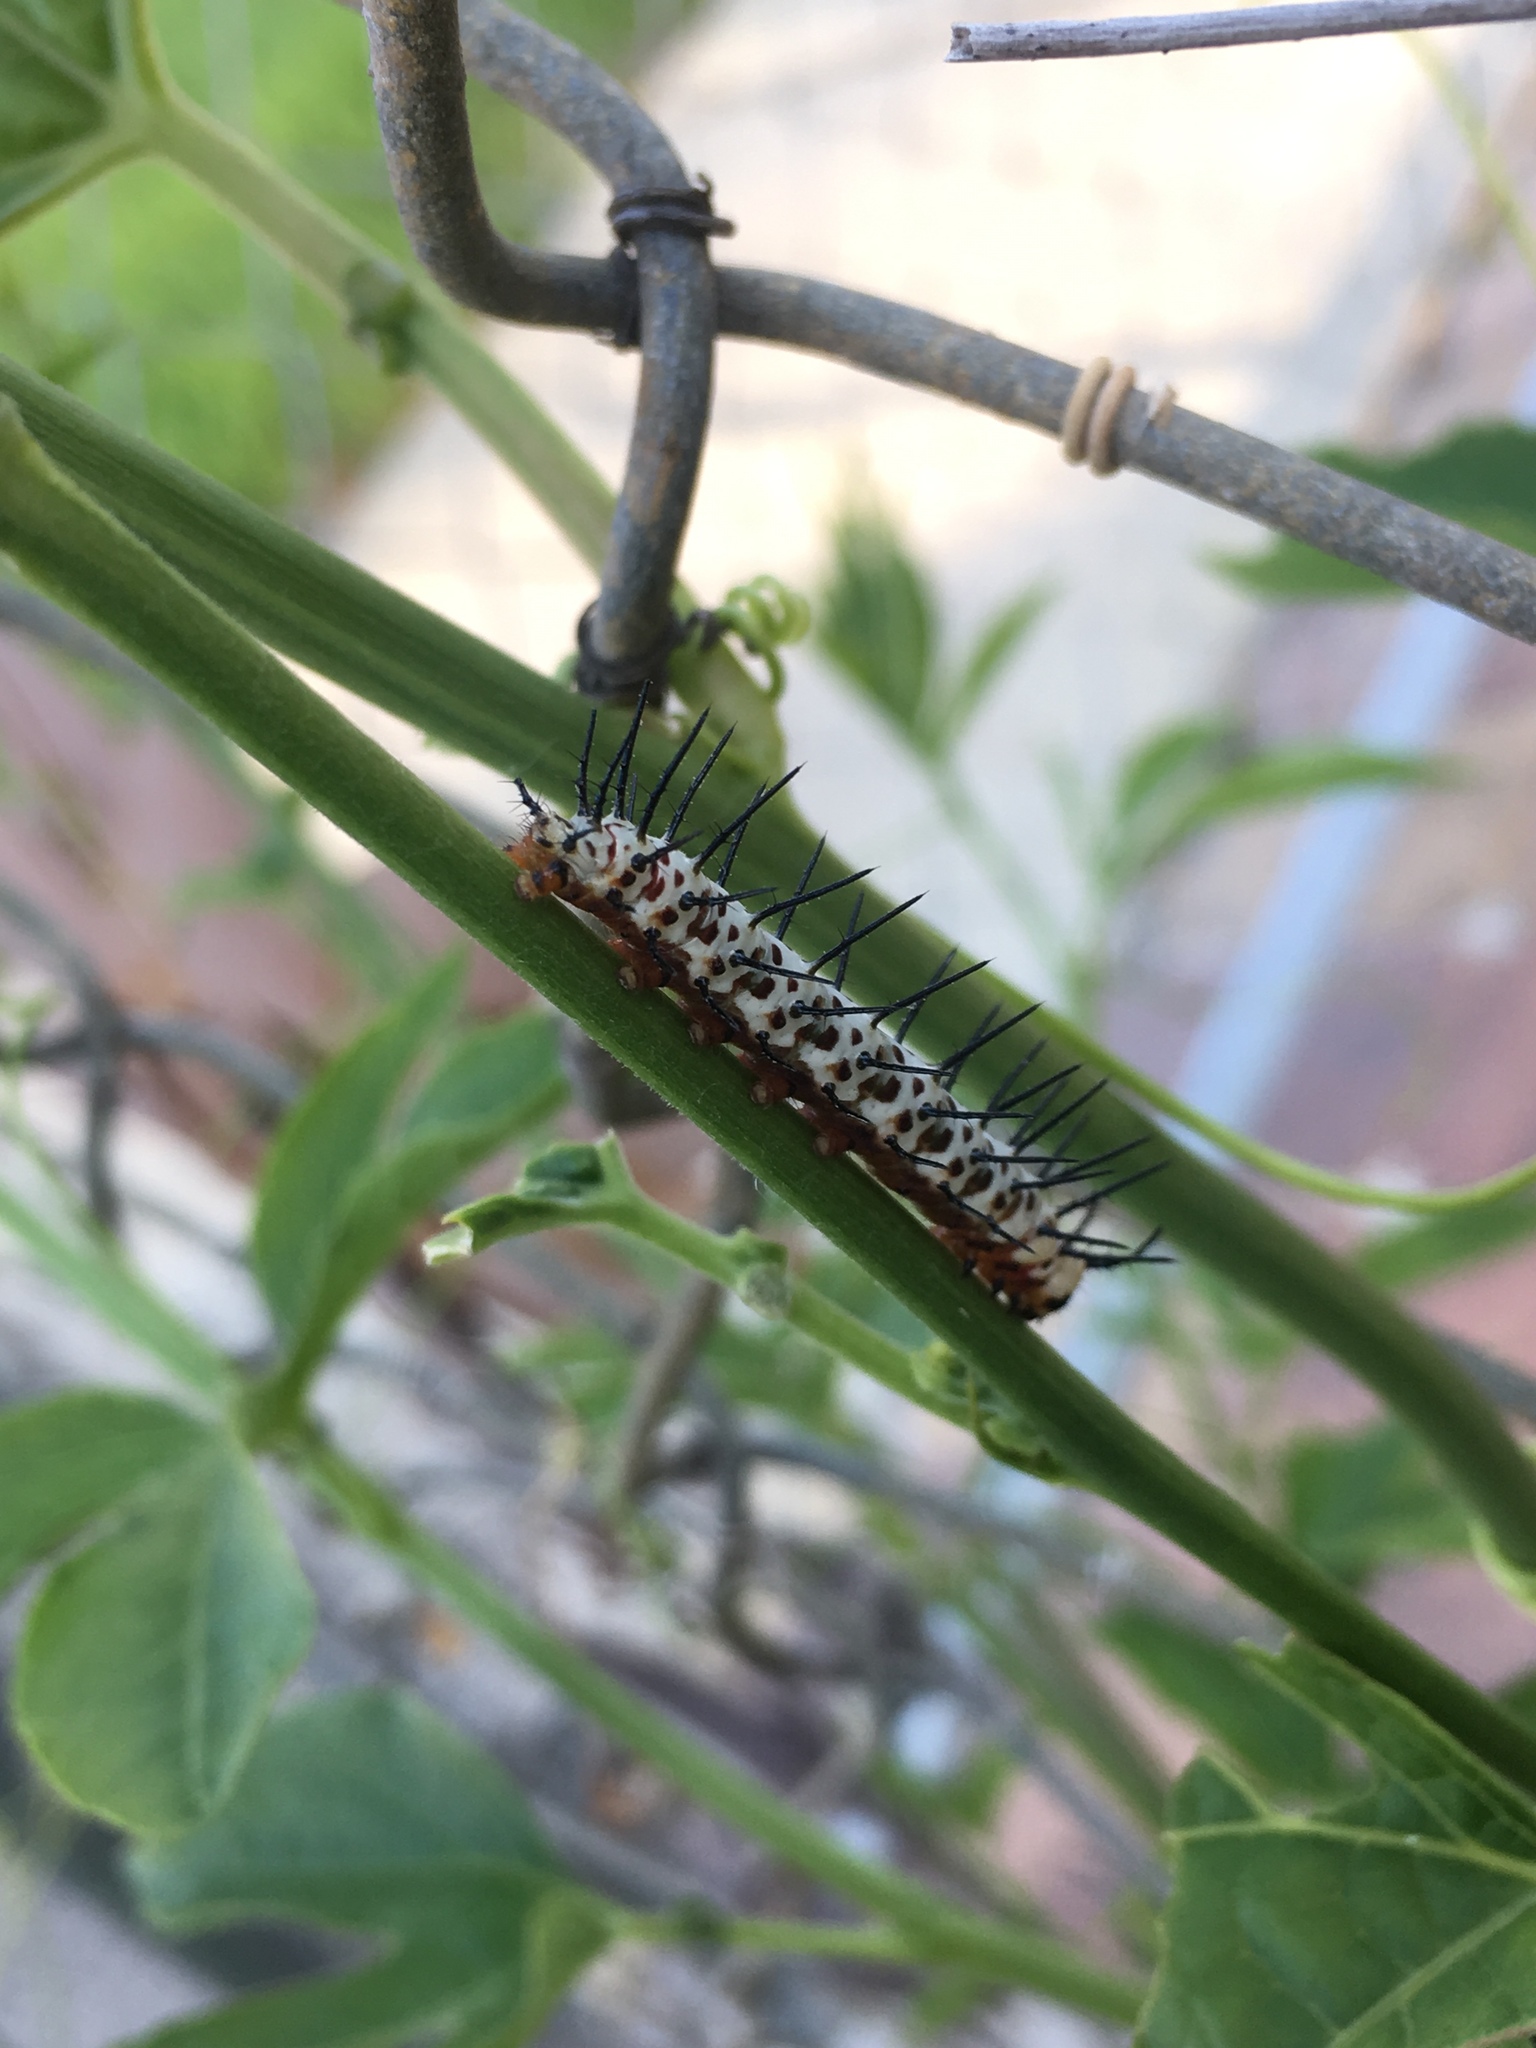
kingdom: Animalia
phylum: Arthropoda
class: Insecta
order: Lepidoptera
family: Nymphalidae
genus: Heliconius
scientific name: Heliconius charithonia
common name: Zebra long wing
